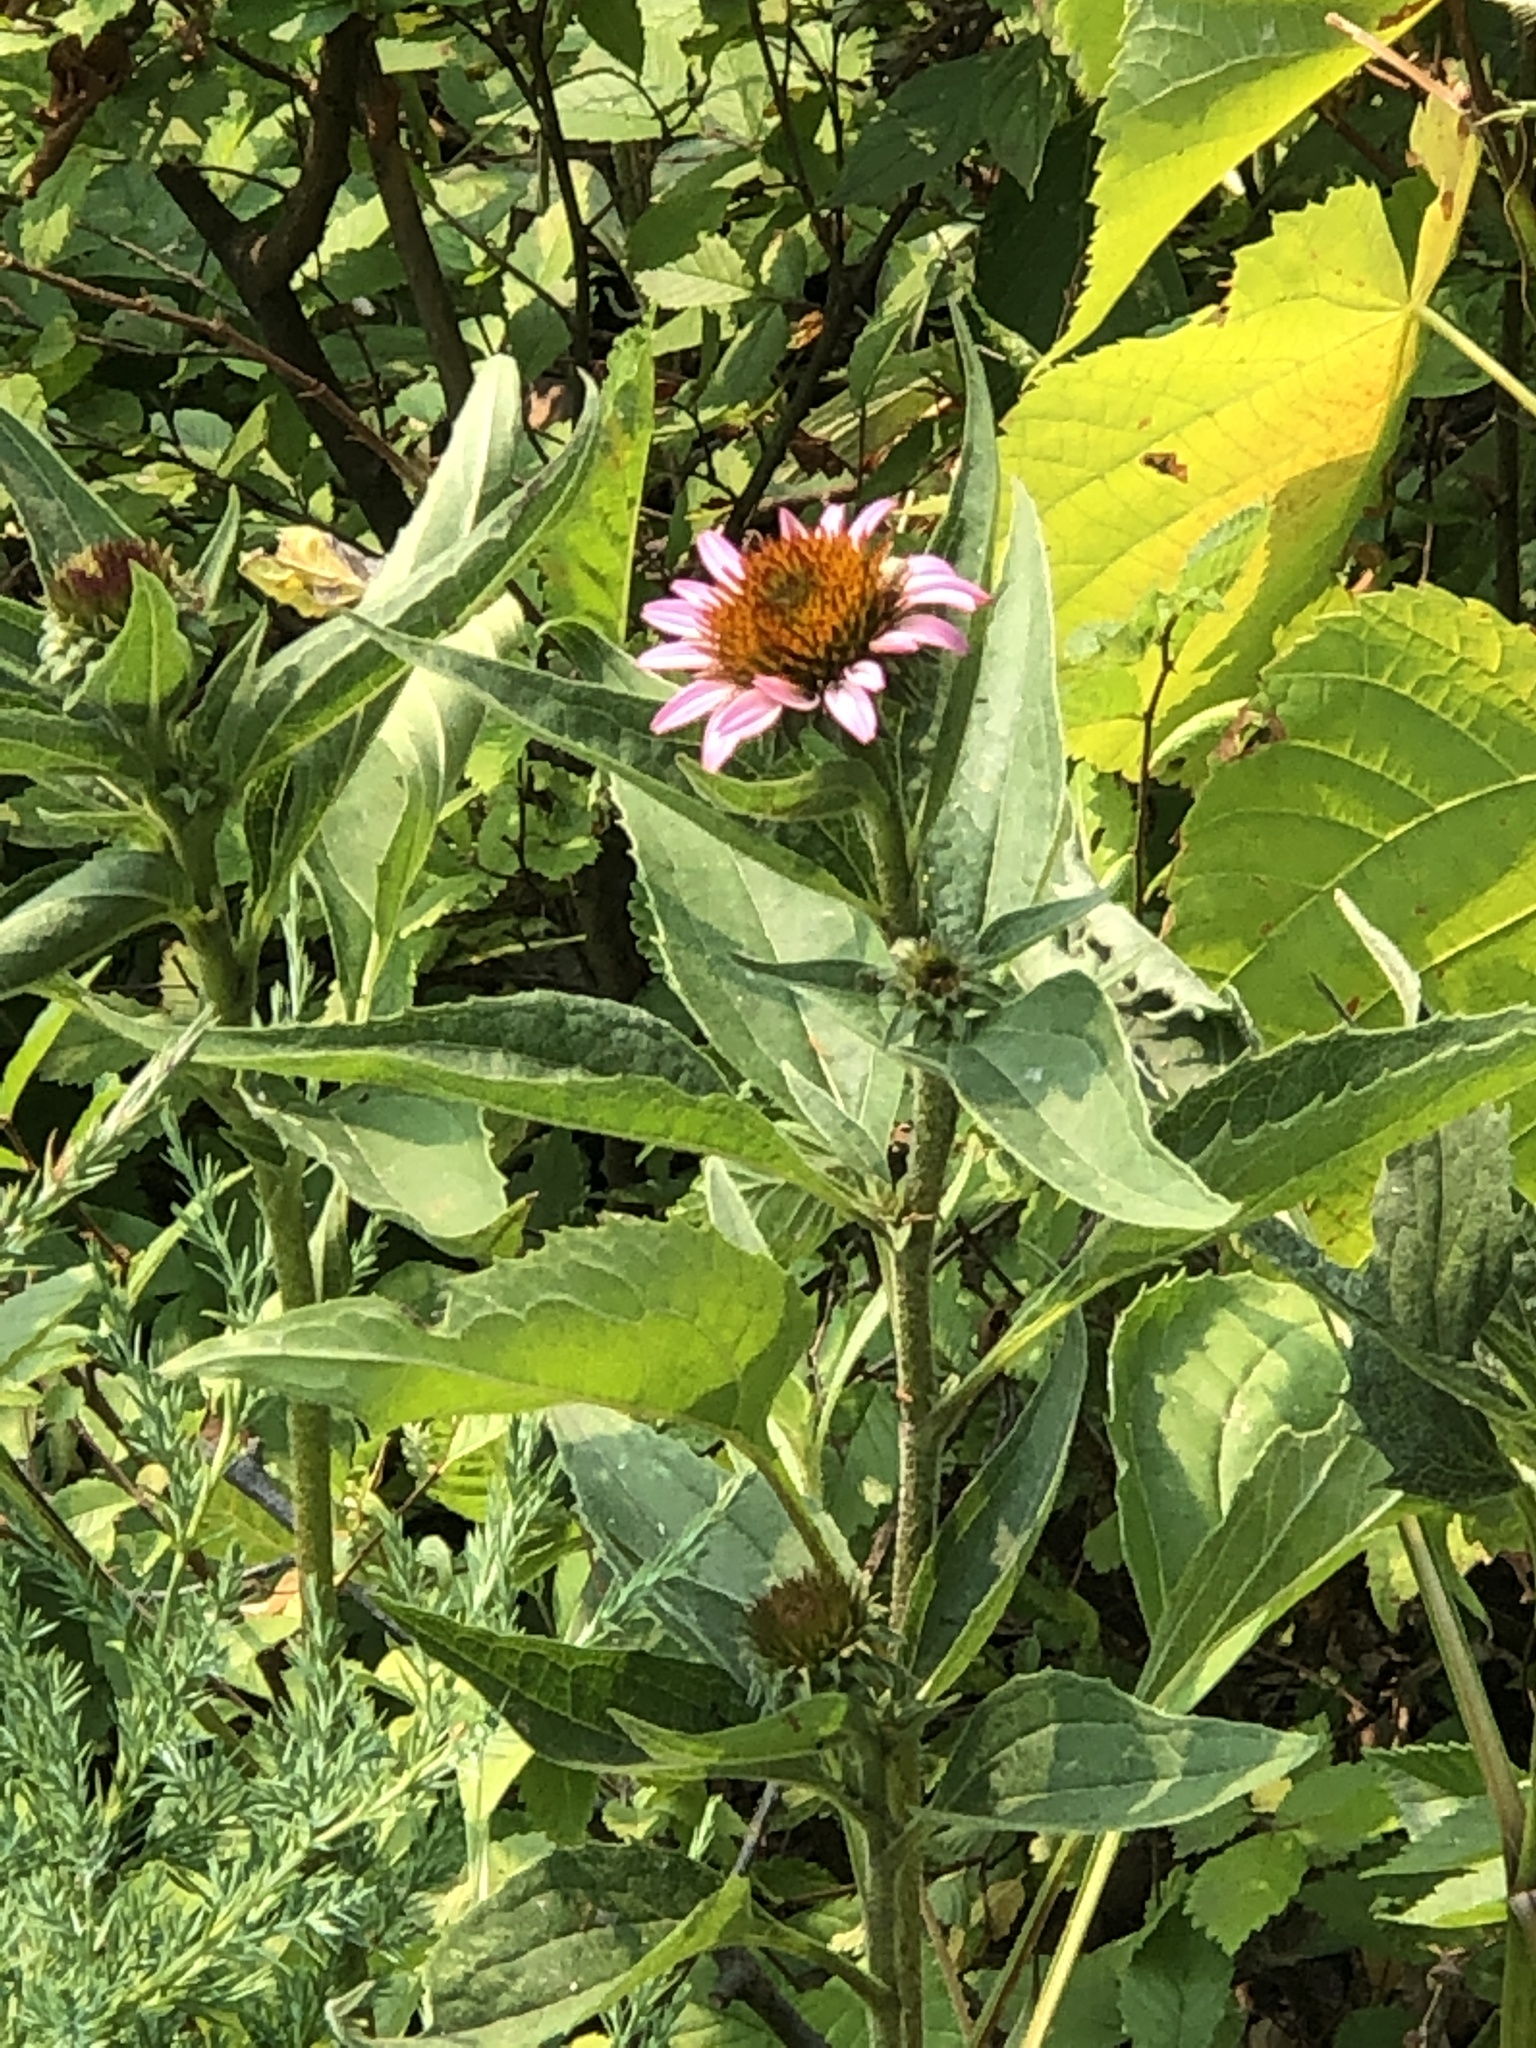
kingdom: Plantae
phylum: Tracheophyta
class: Magnoliopsida
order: Asterales
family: Asteraceae
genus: Echinacea
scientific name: Echinacea purpurea
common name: Broad-leaved purple coneflower
